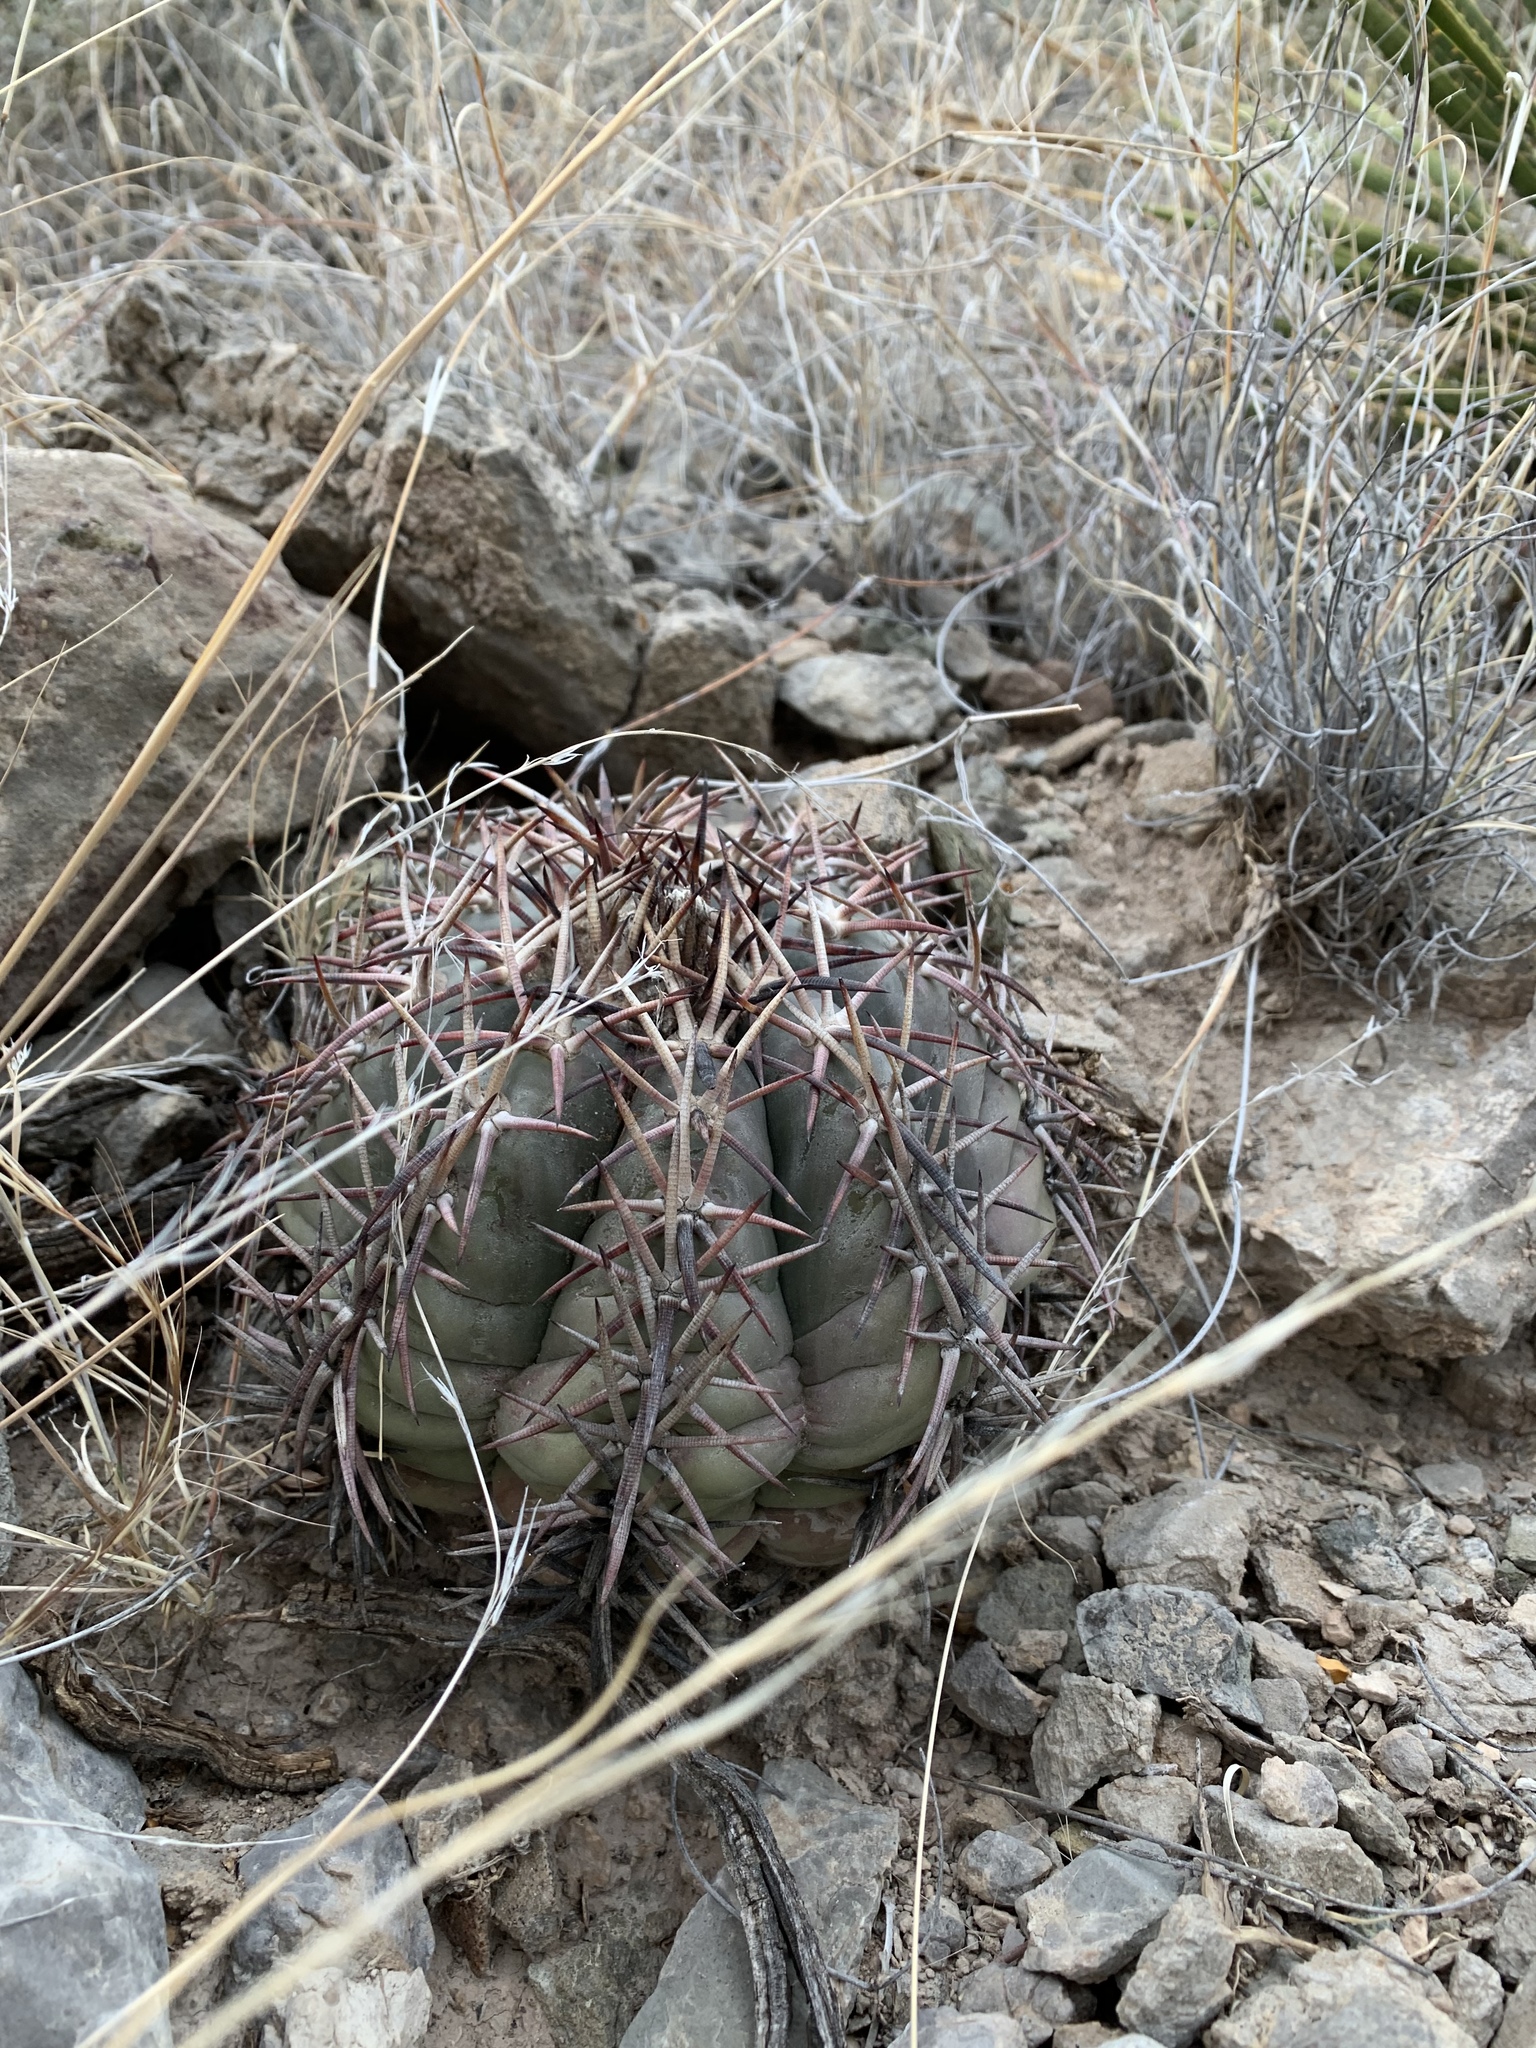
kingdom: Plantae
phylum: Tracheophyta
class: Magnoliopsida
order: Caryophyllales
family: Cactaceae
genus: Echinocactus
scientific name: Echinocactus horizonthalonius
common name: Devilshead
